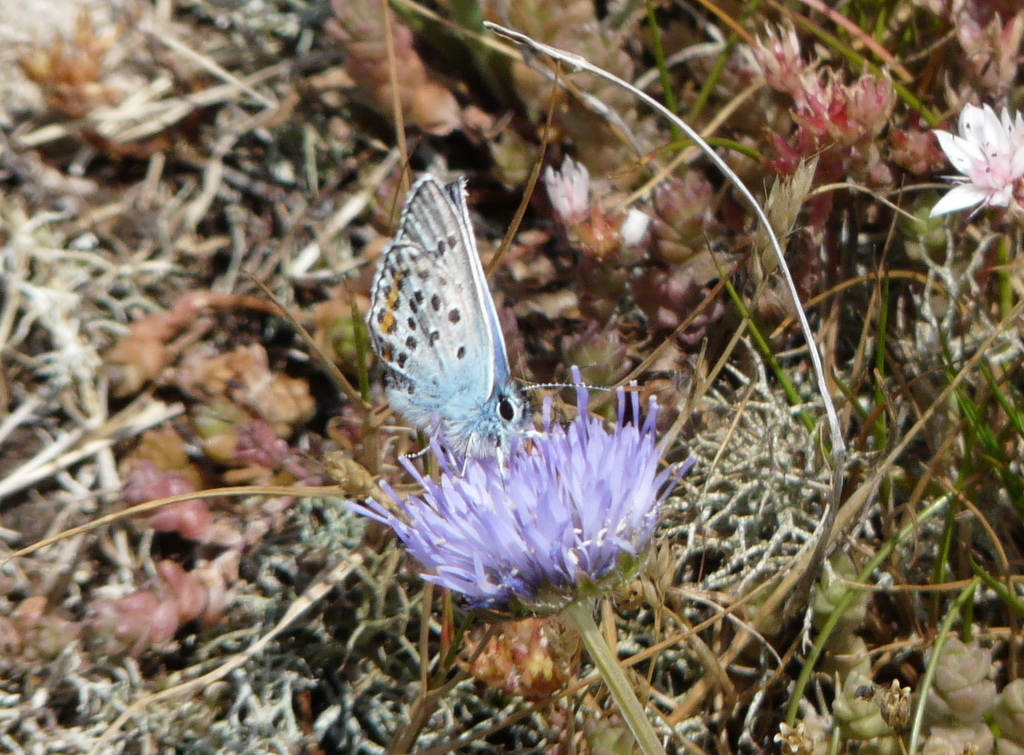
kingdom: Animalia
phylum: Arthropoda
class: Insecta
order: Lepidoptera
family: Lycaenidae
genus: Plebejus
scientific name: Plebejus argus
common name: Silver-studded blue
